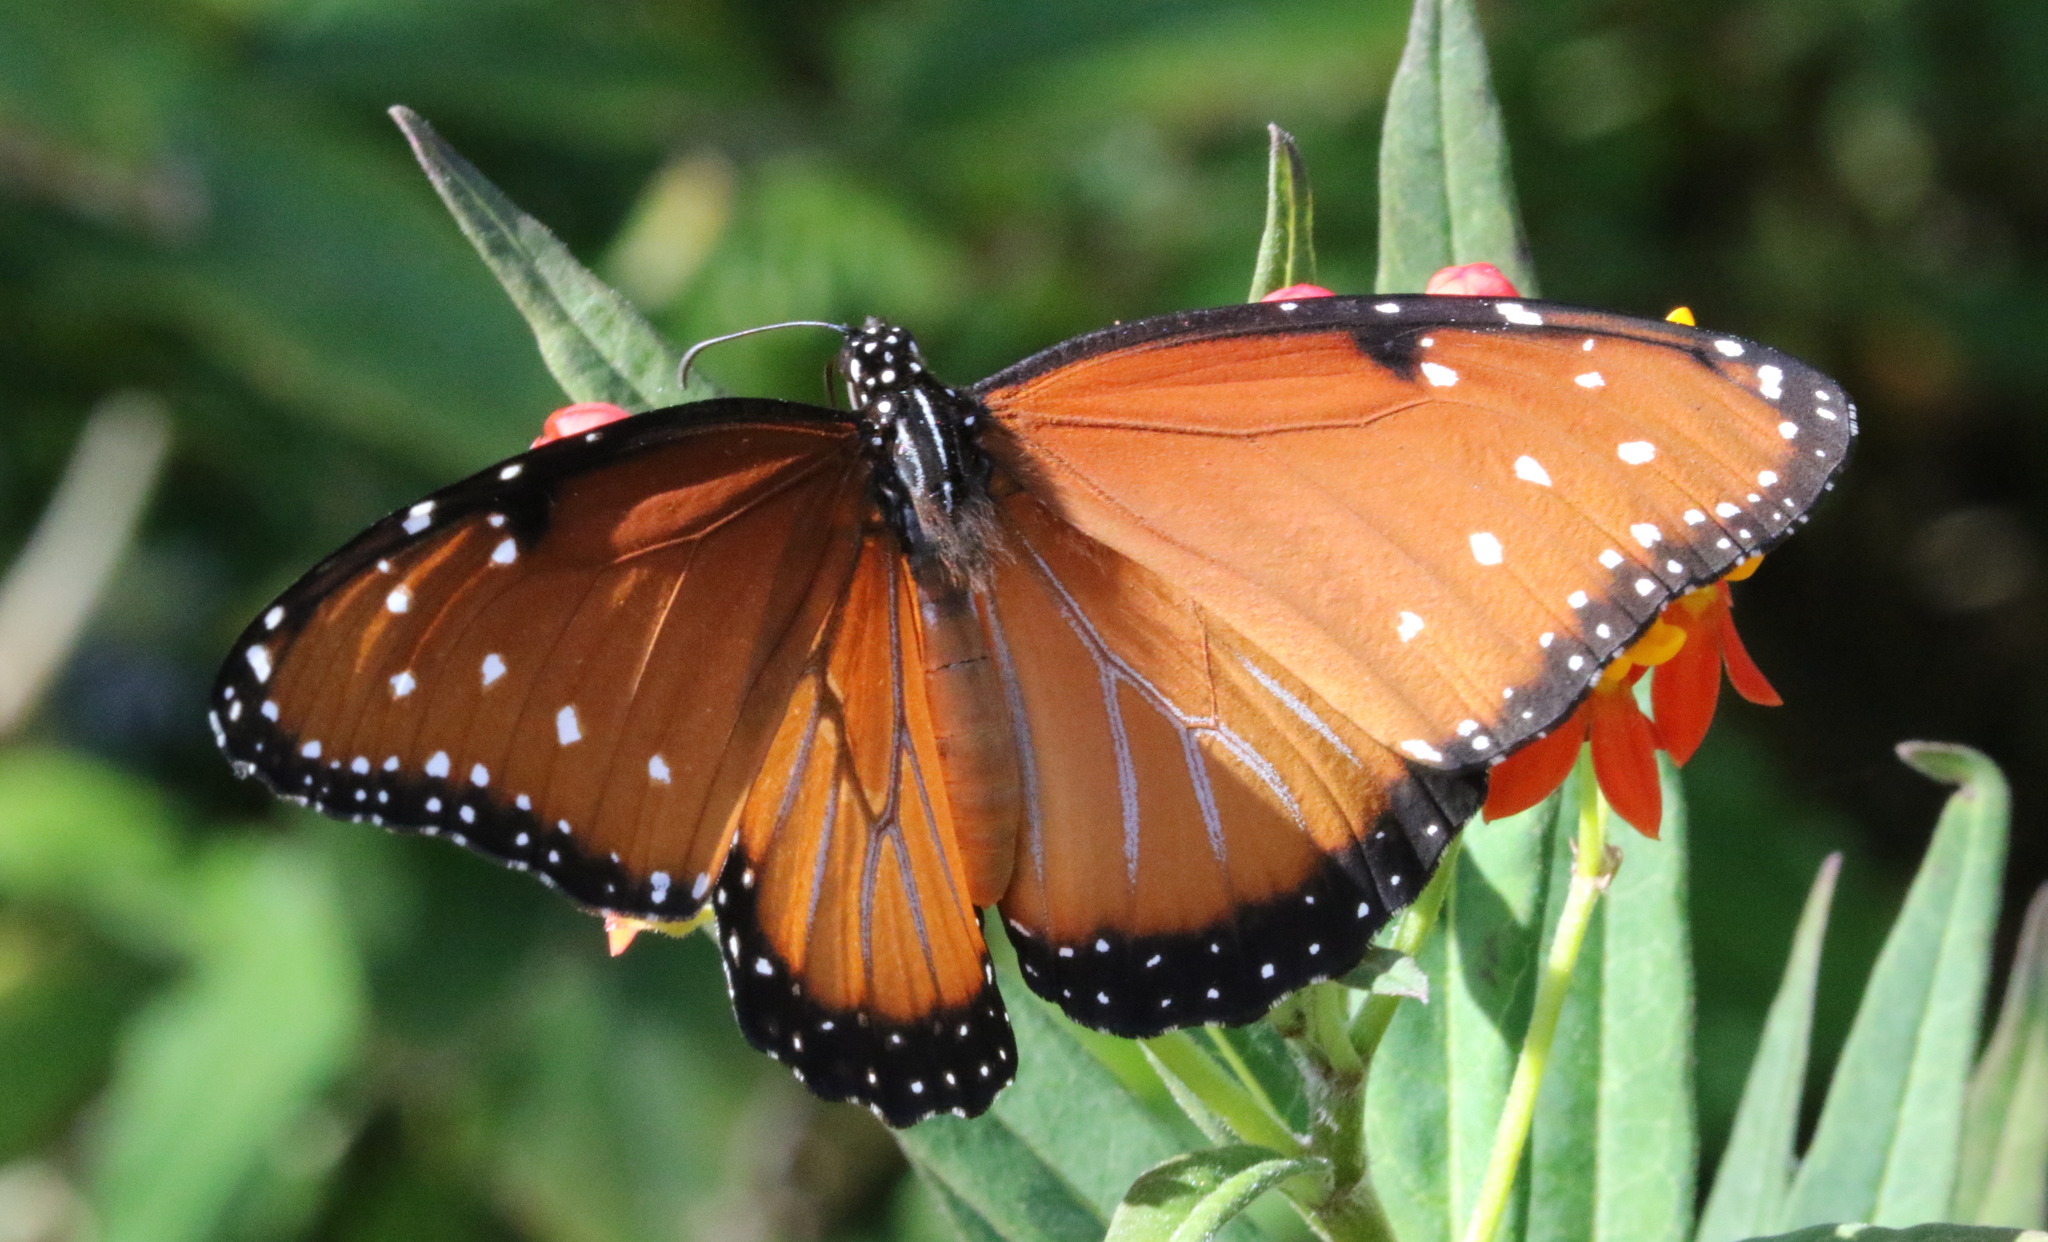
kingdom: Animalia
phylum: Arthropoda
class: Insecta
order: Lepidoptera
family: Nymphalidae
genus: Danaus
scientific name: Danaus gilippus
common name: Queen
